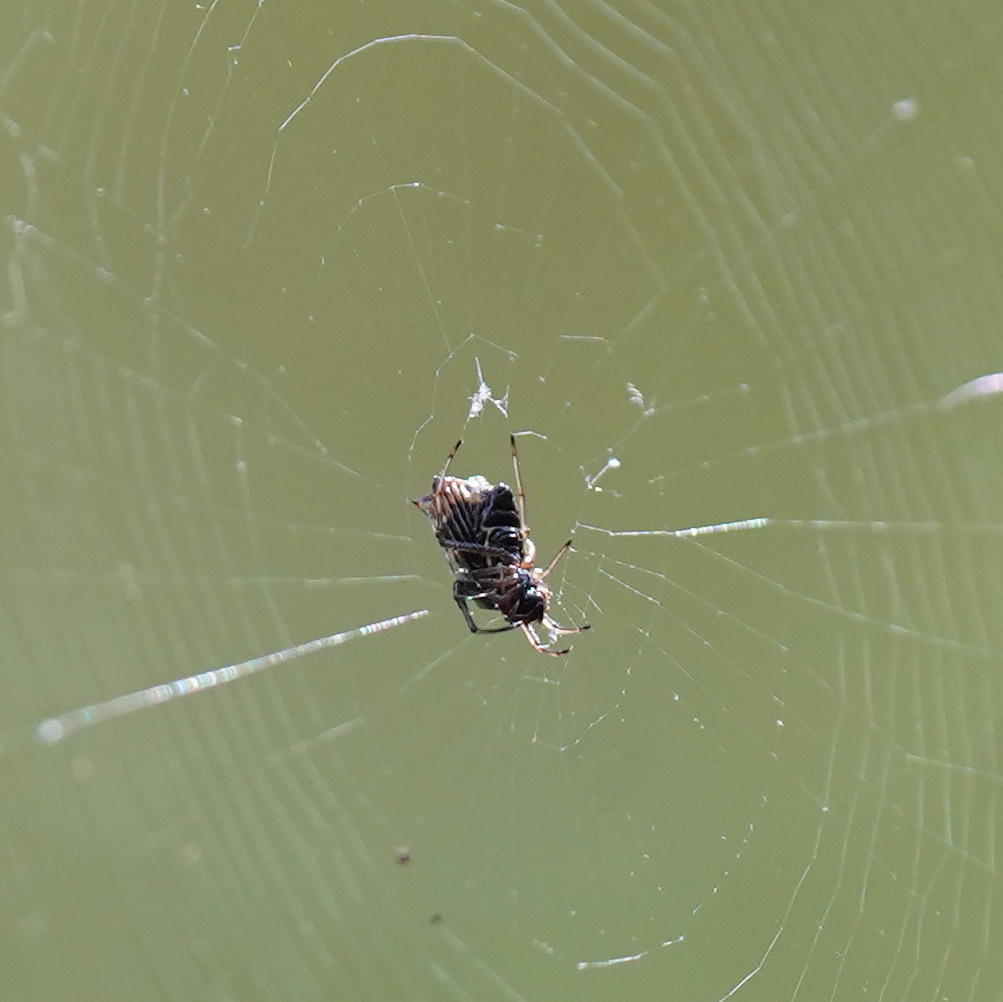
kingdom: Animalia
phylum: Arthropoda
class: Arachnida
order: Araneae
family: Araneidae
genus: Micrathena
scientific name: Micrathena mitrata
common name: Orb weavers
